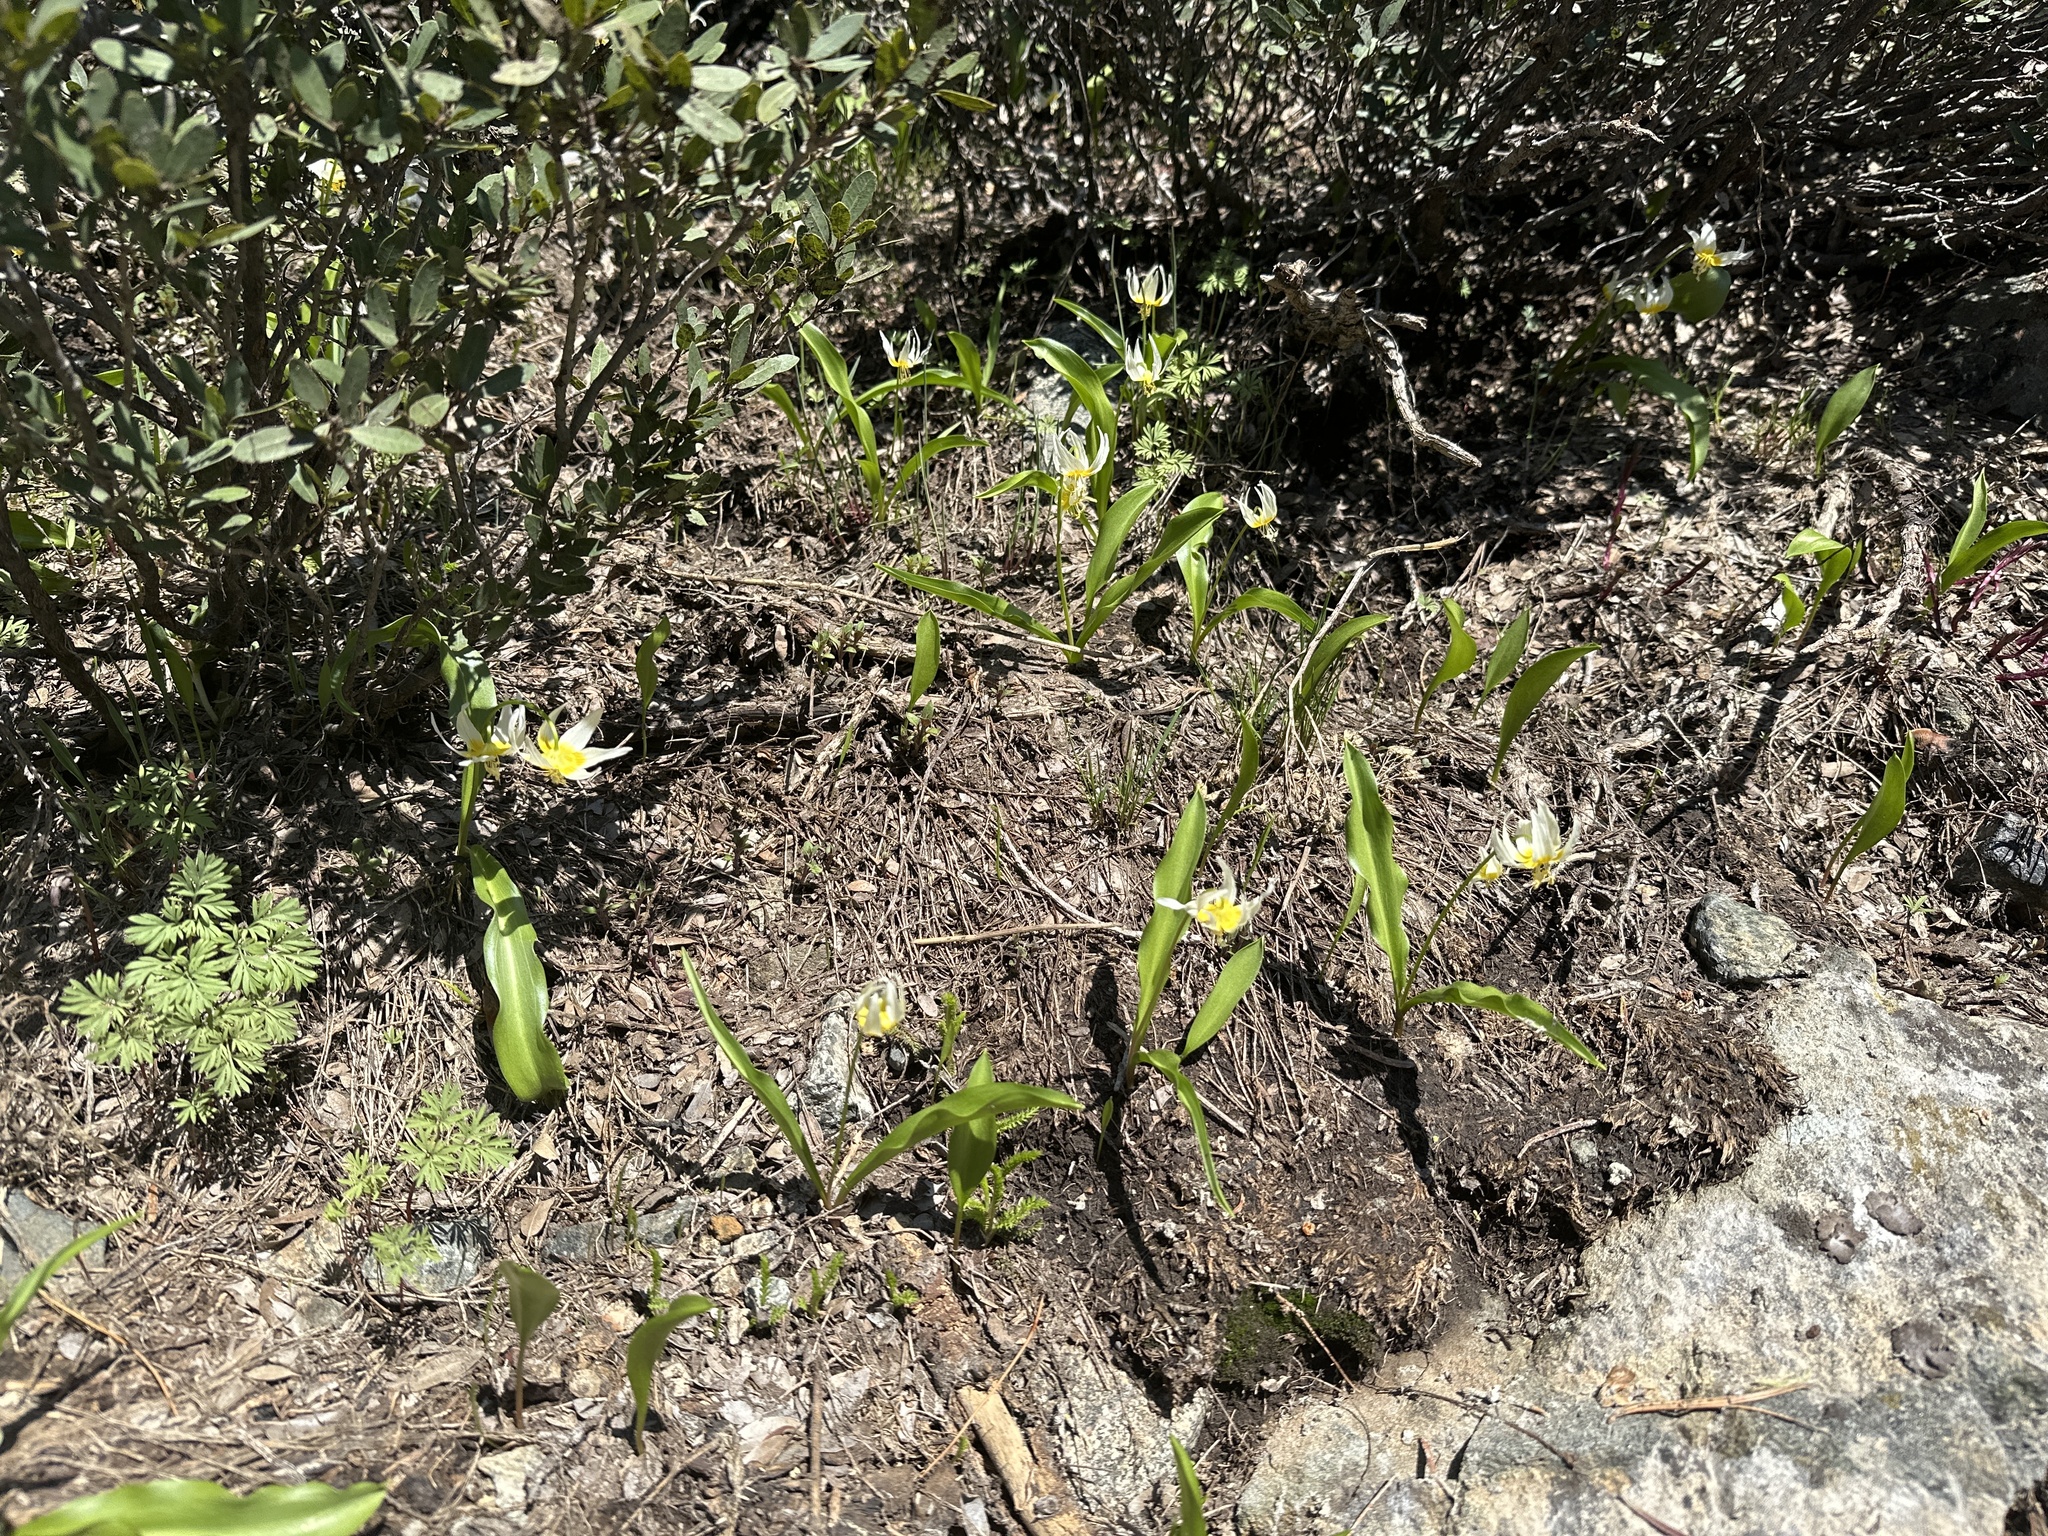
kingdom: Plantae
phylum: Tracheophyta
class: Liliopsida
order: Liliales
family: Liliaceae
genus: Erythronium
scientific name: Erythronium klamathense
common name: Klamath fawn-lily
